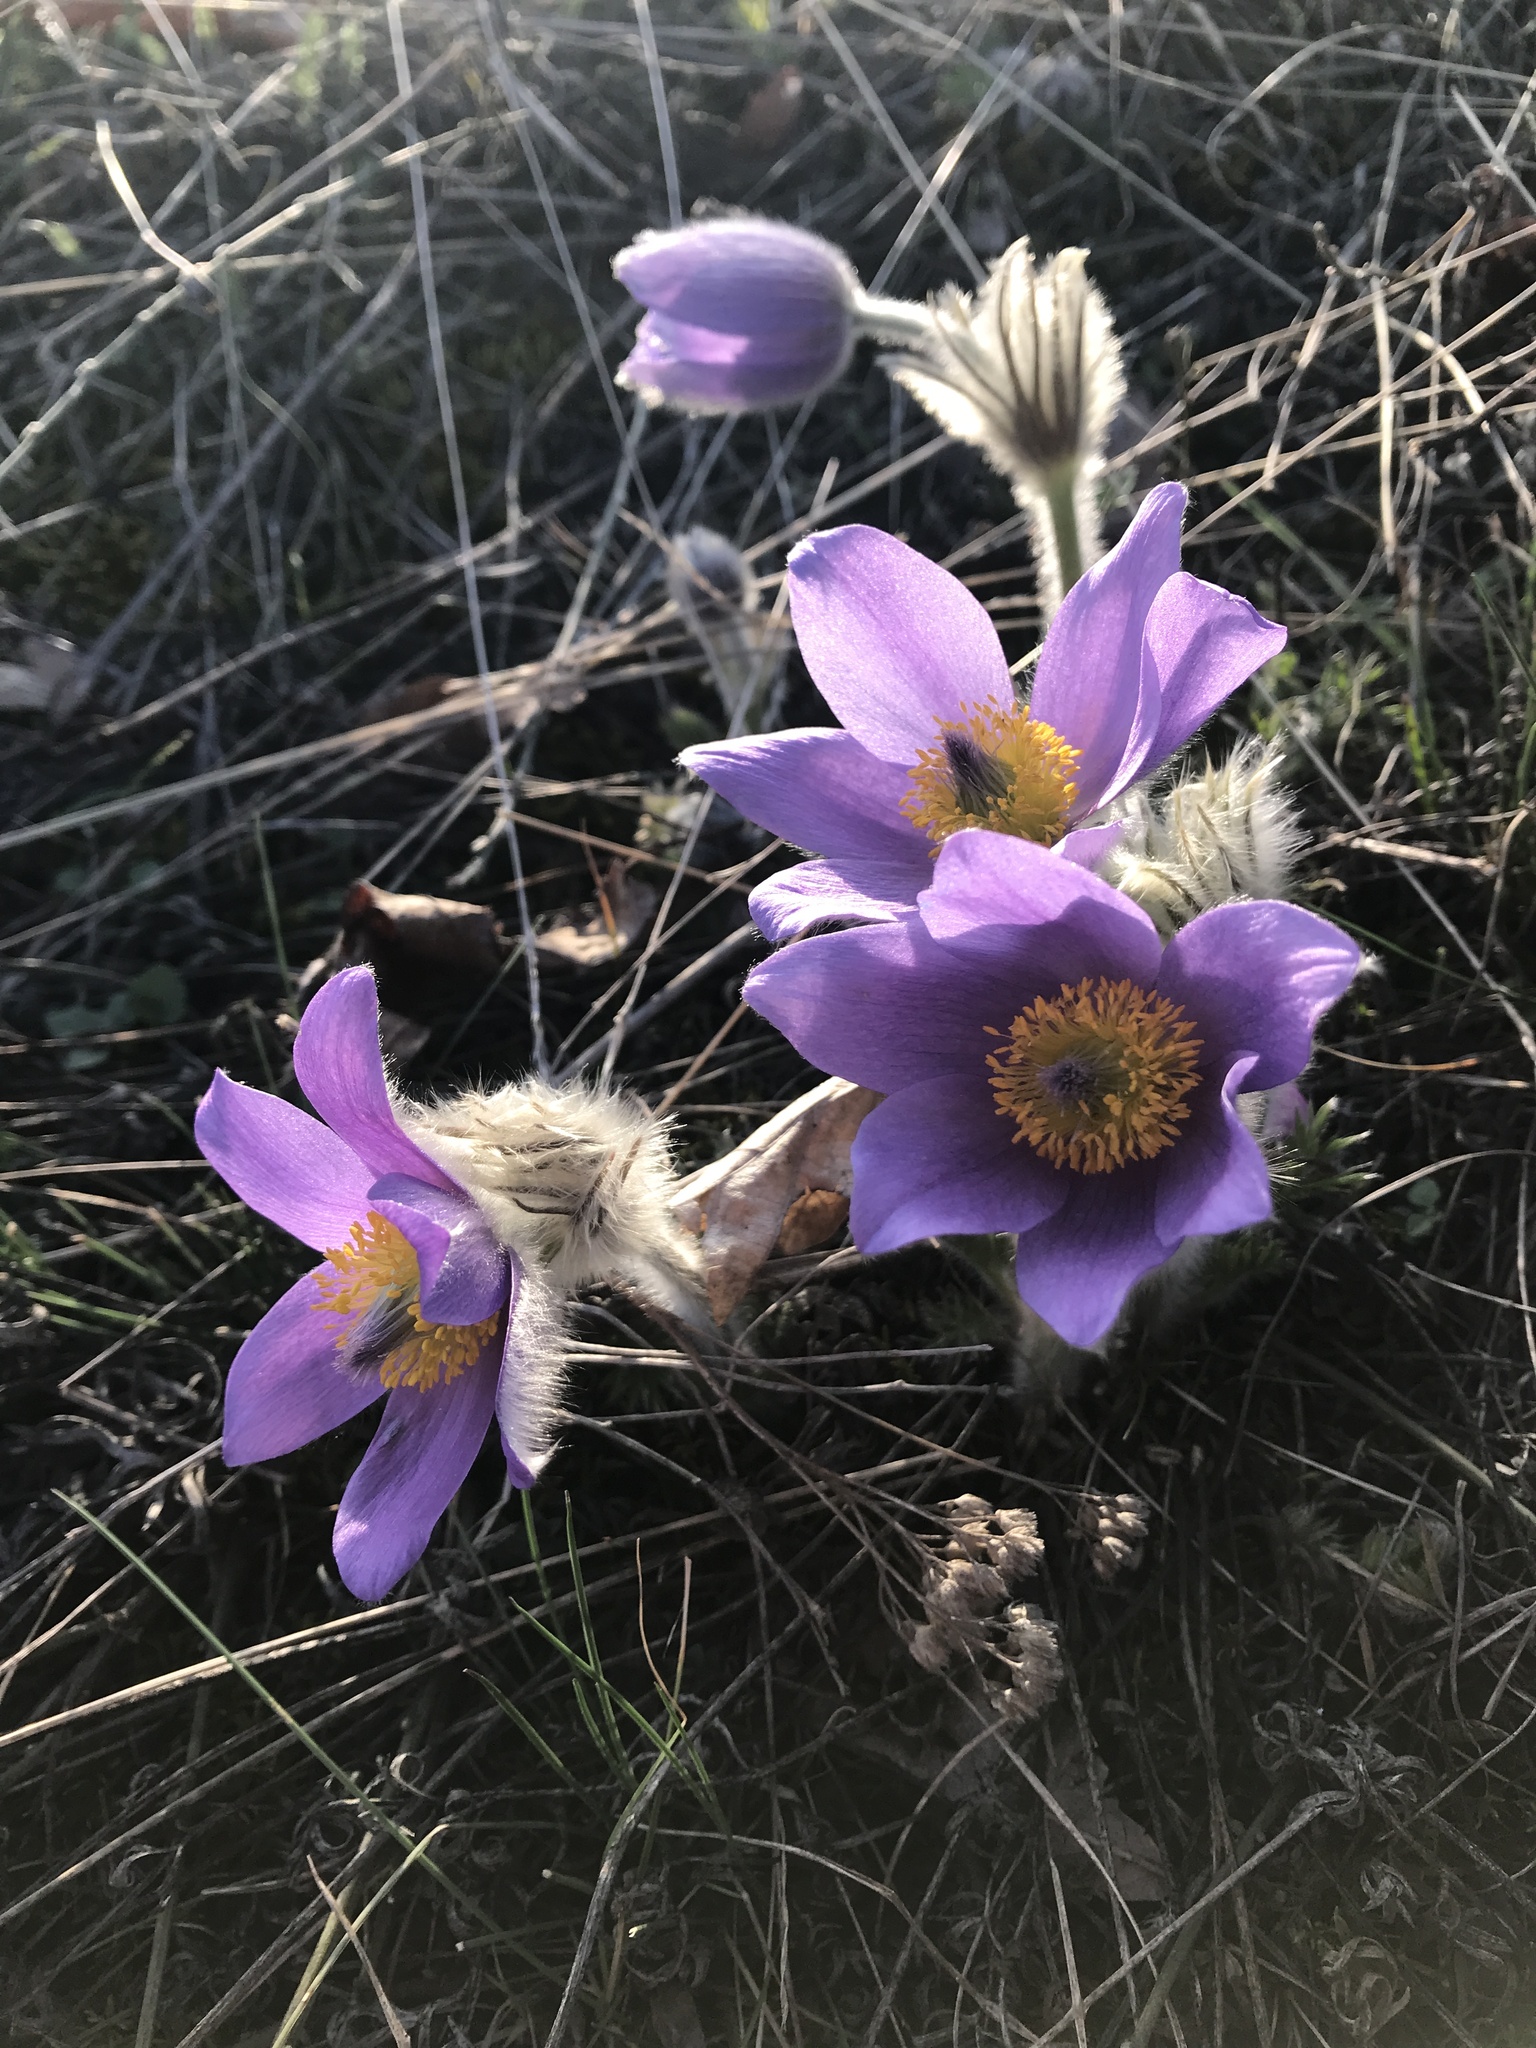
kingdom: Plantae
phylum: Tracheophyta
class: Magnoliopsida
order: Ranunculales
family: Ranunculaceae
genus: Pulsatilla
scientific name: Pulsatilla grandis
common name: Greater pasque flower
